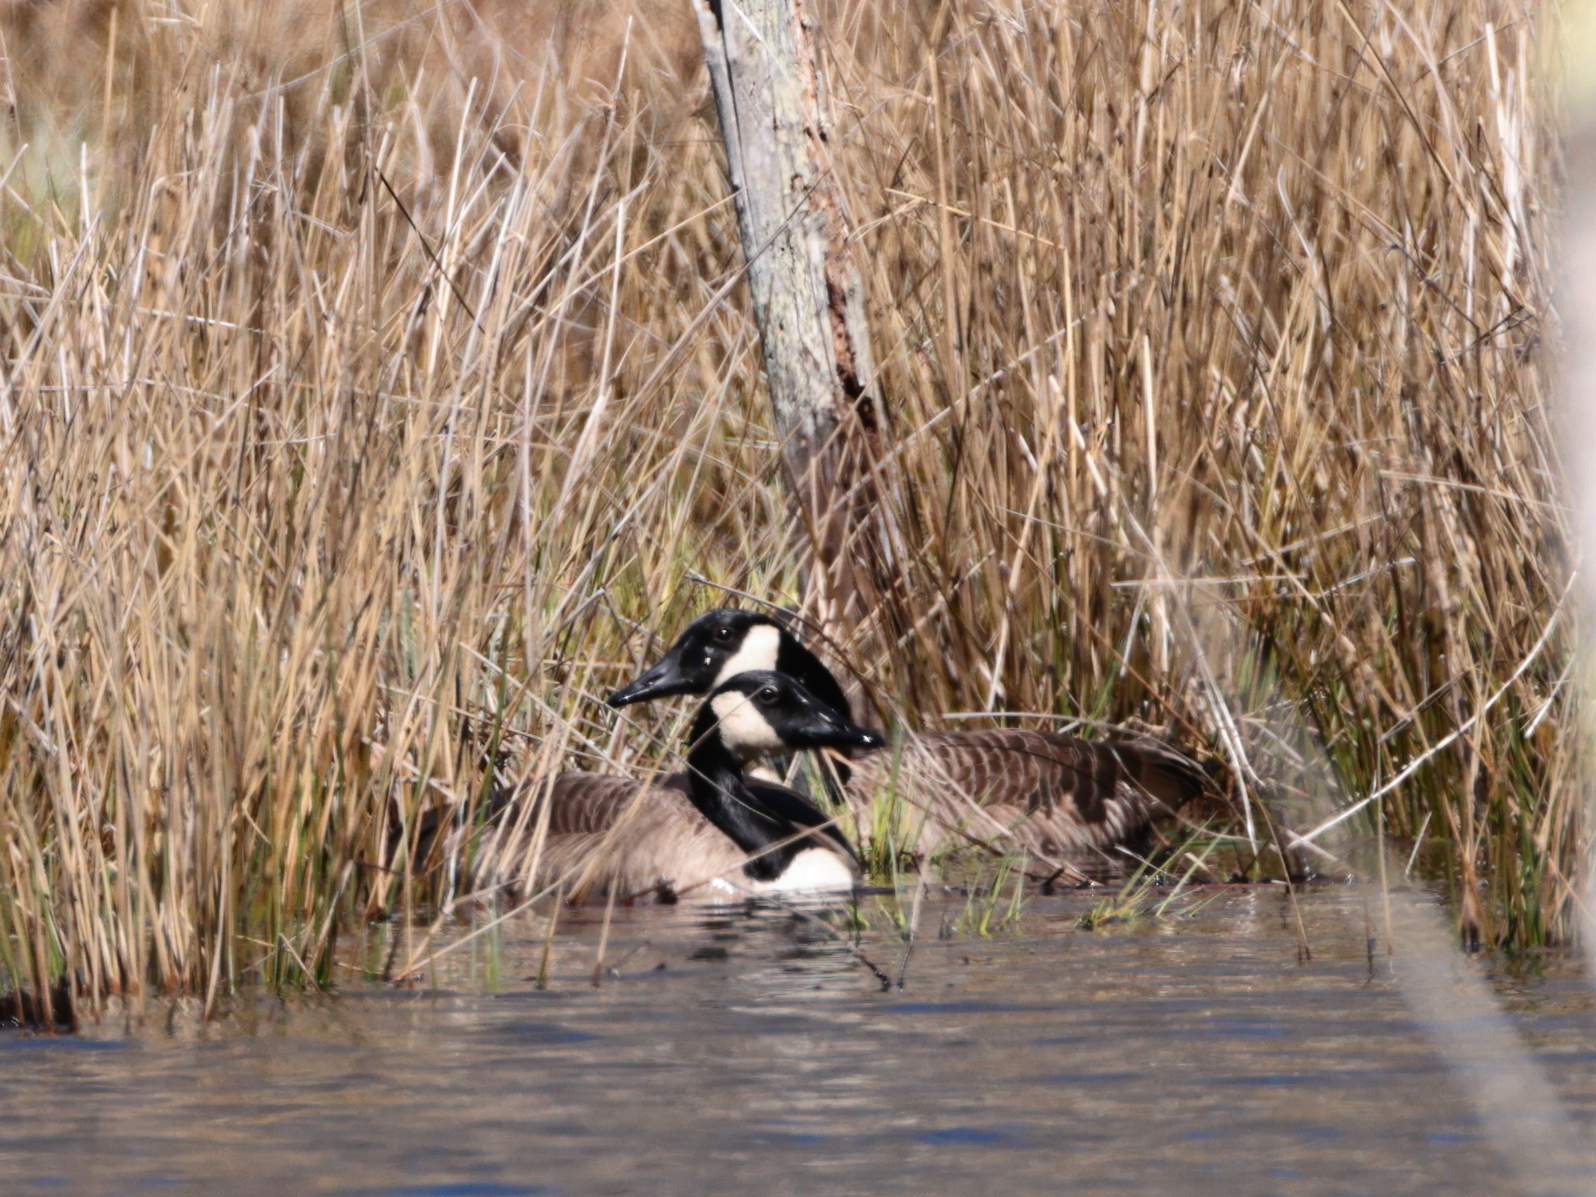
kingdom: Animalia
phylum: Chordata
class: Aves
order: Anseriformes
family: Anatidae
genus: Branta
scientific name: Branta canadensis
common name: Canada goose
